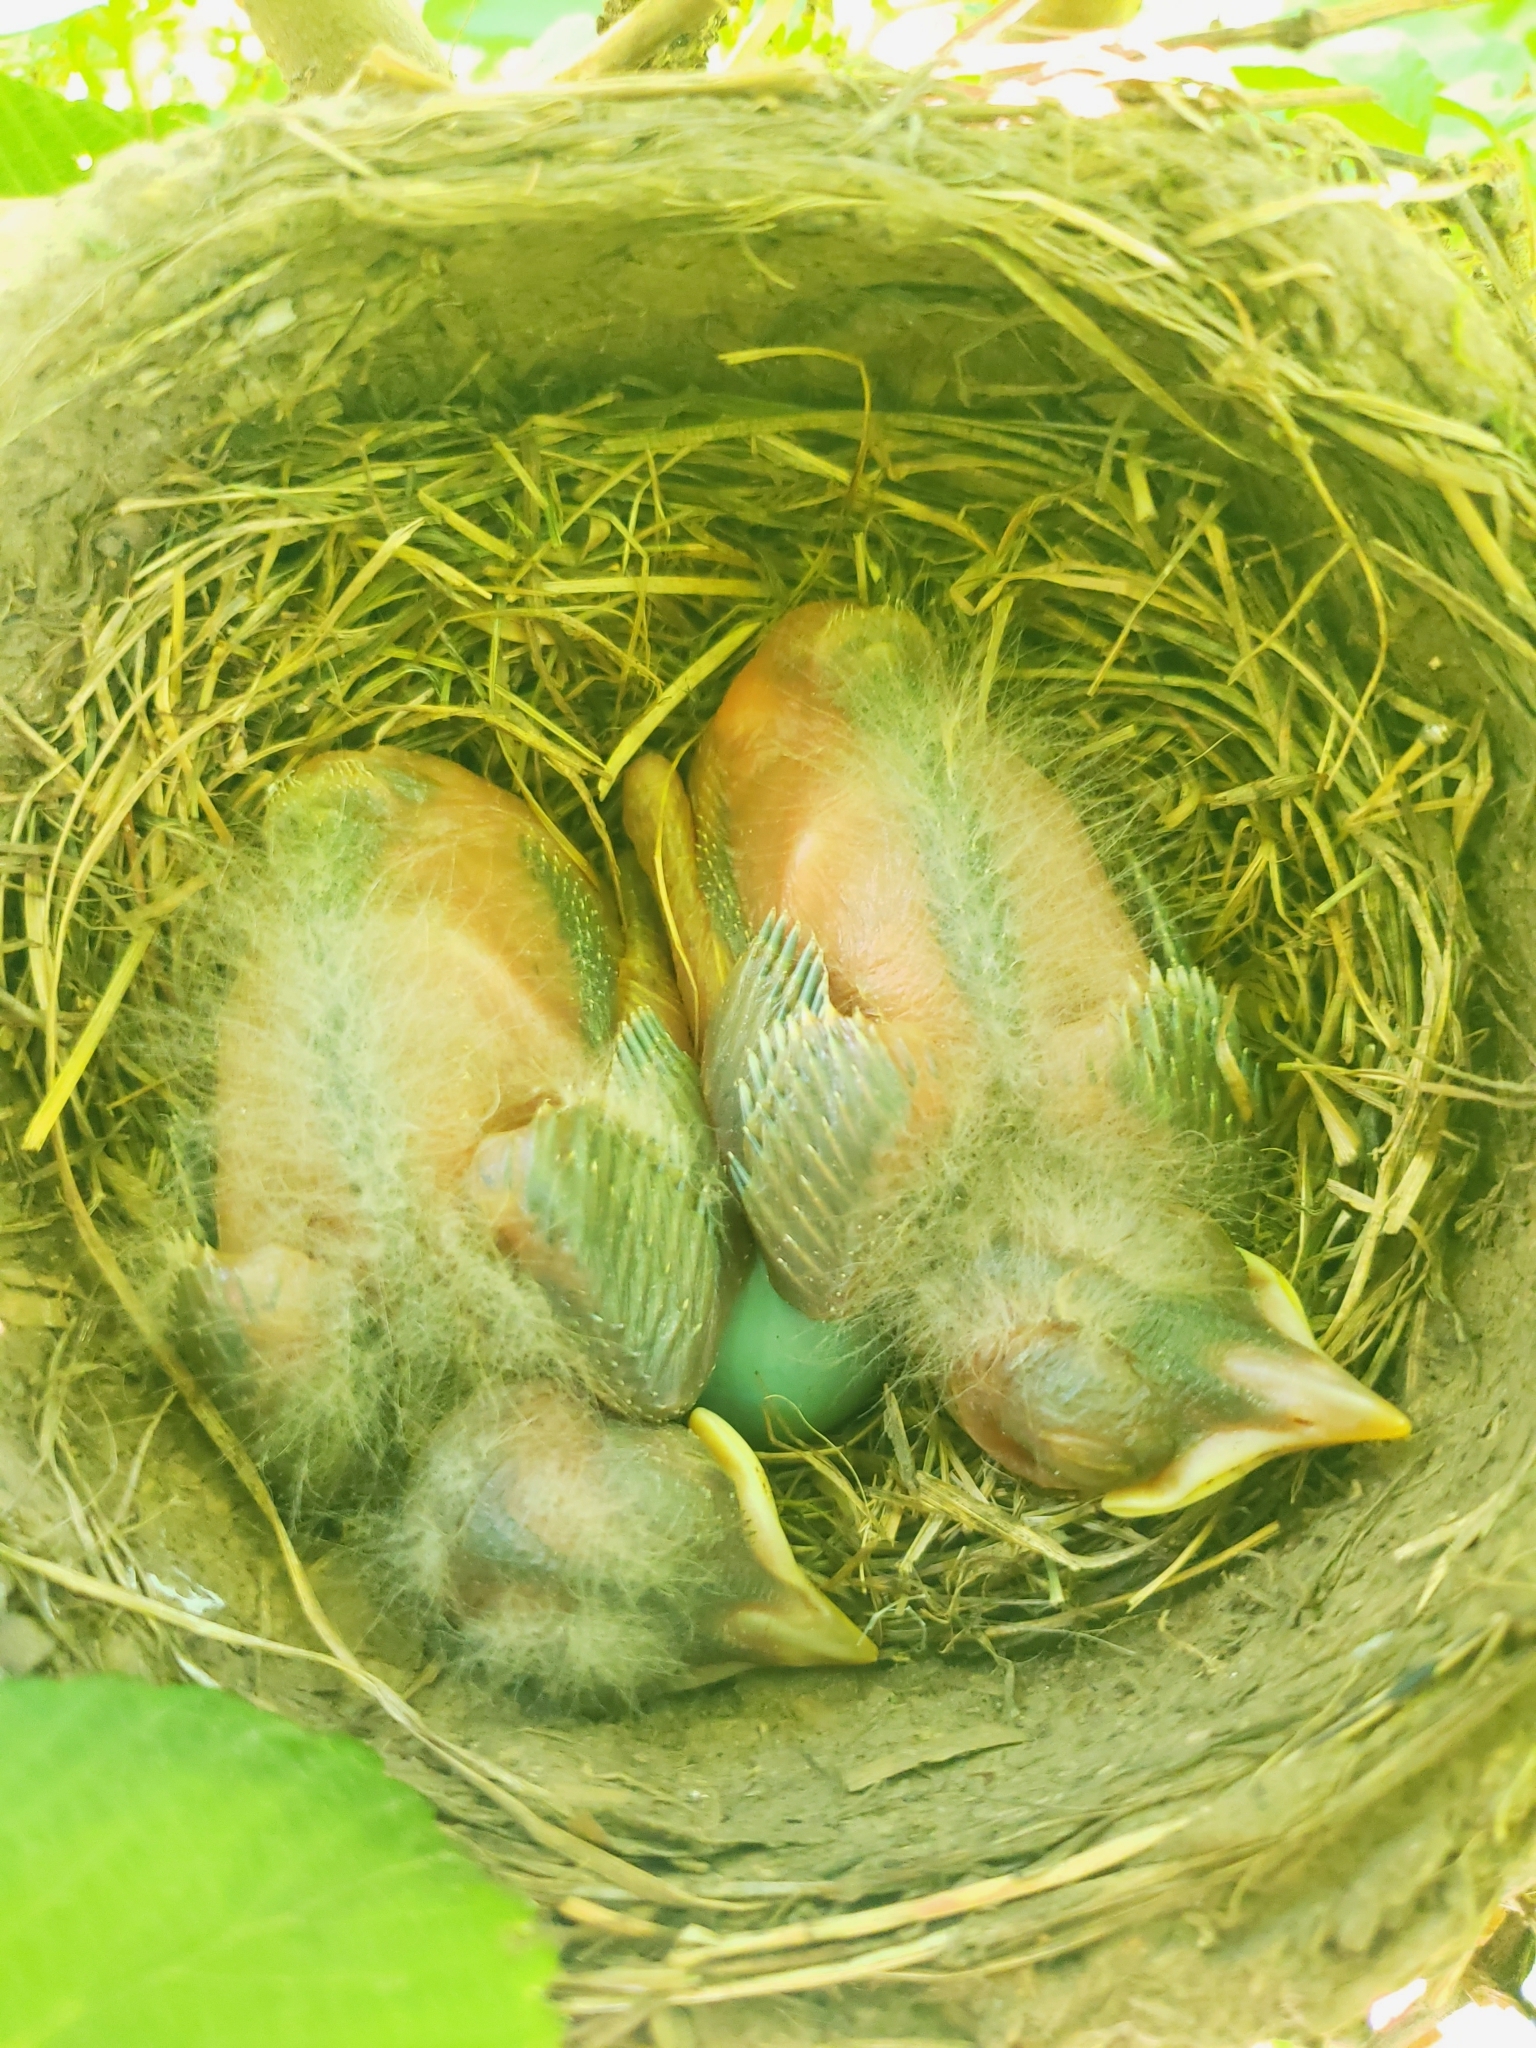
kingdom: Animalia
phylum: Chordata
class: Aves
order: Passeriformes
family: Turdidae
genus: Turdus
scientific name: Turdus migratorius
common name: American robin
